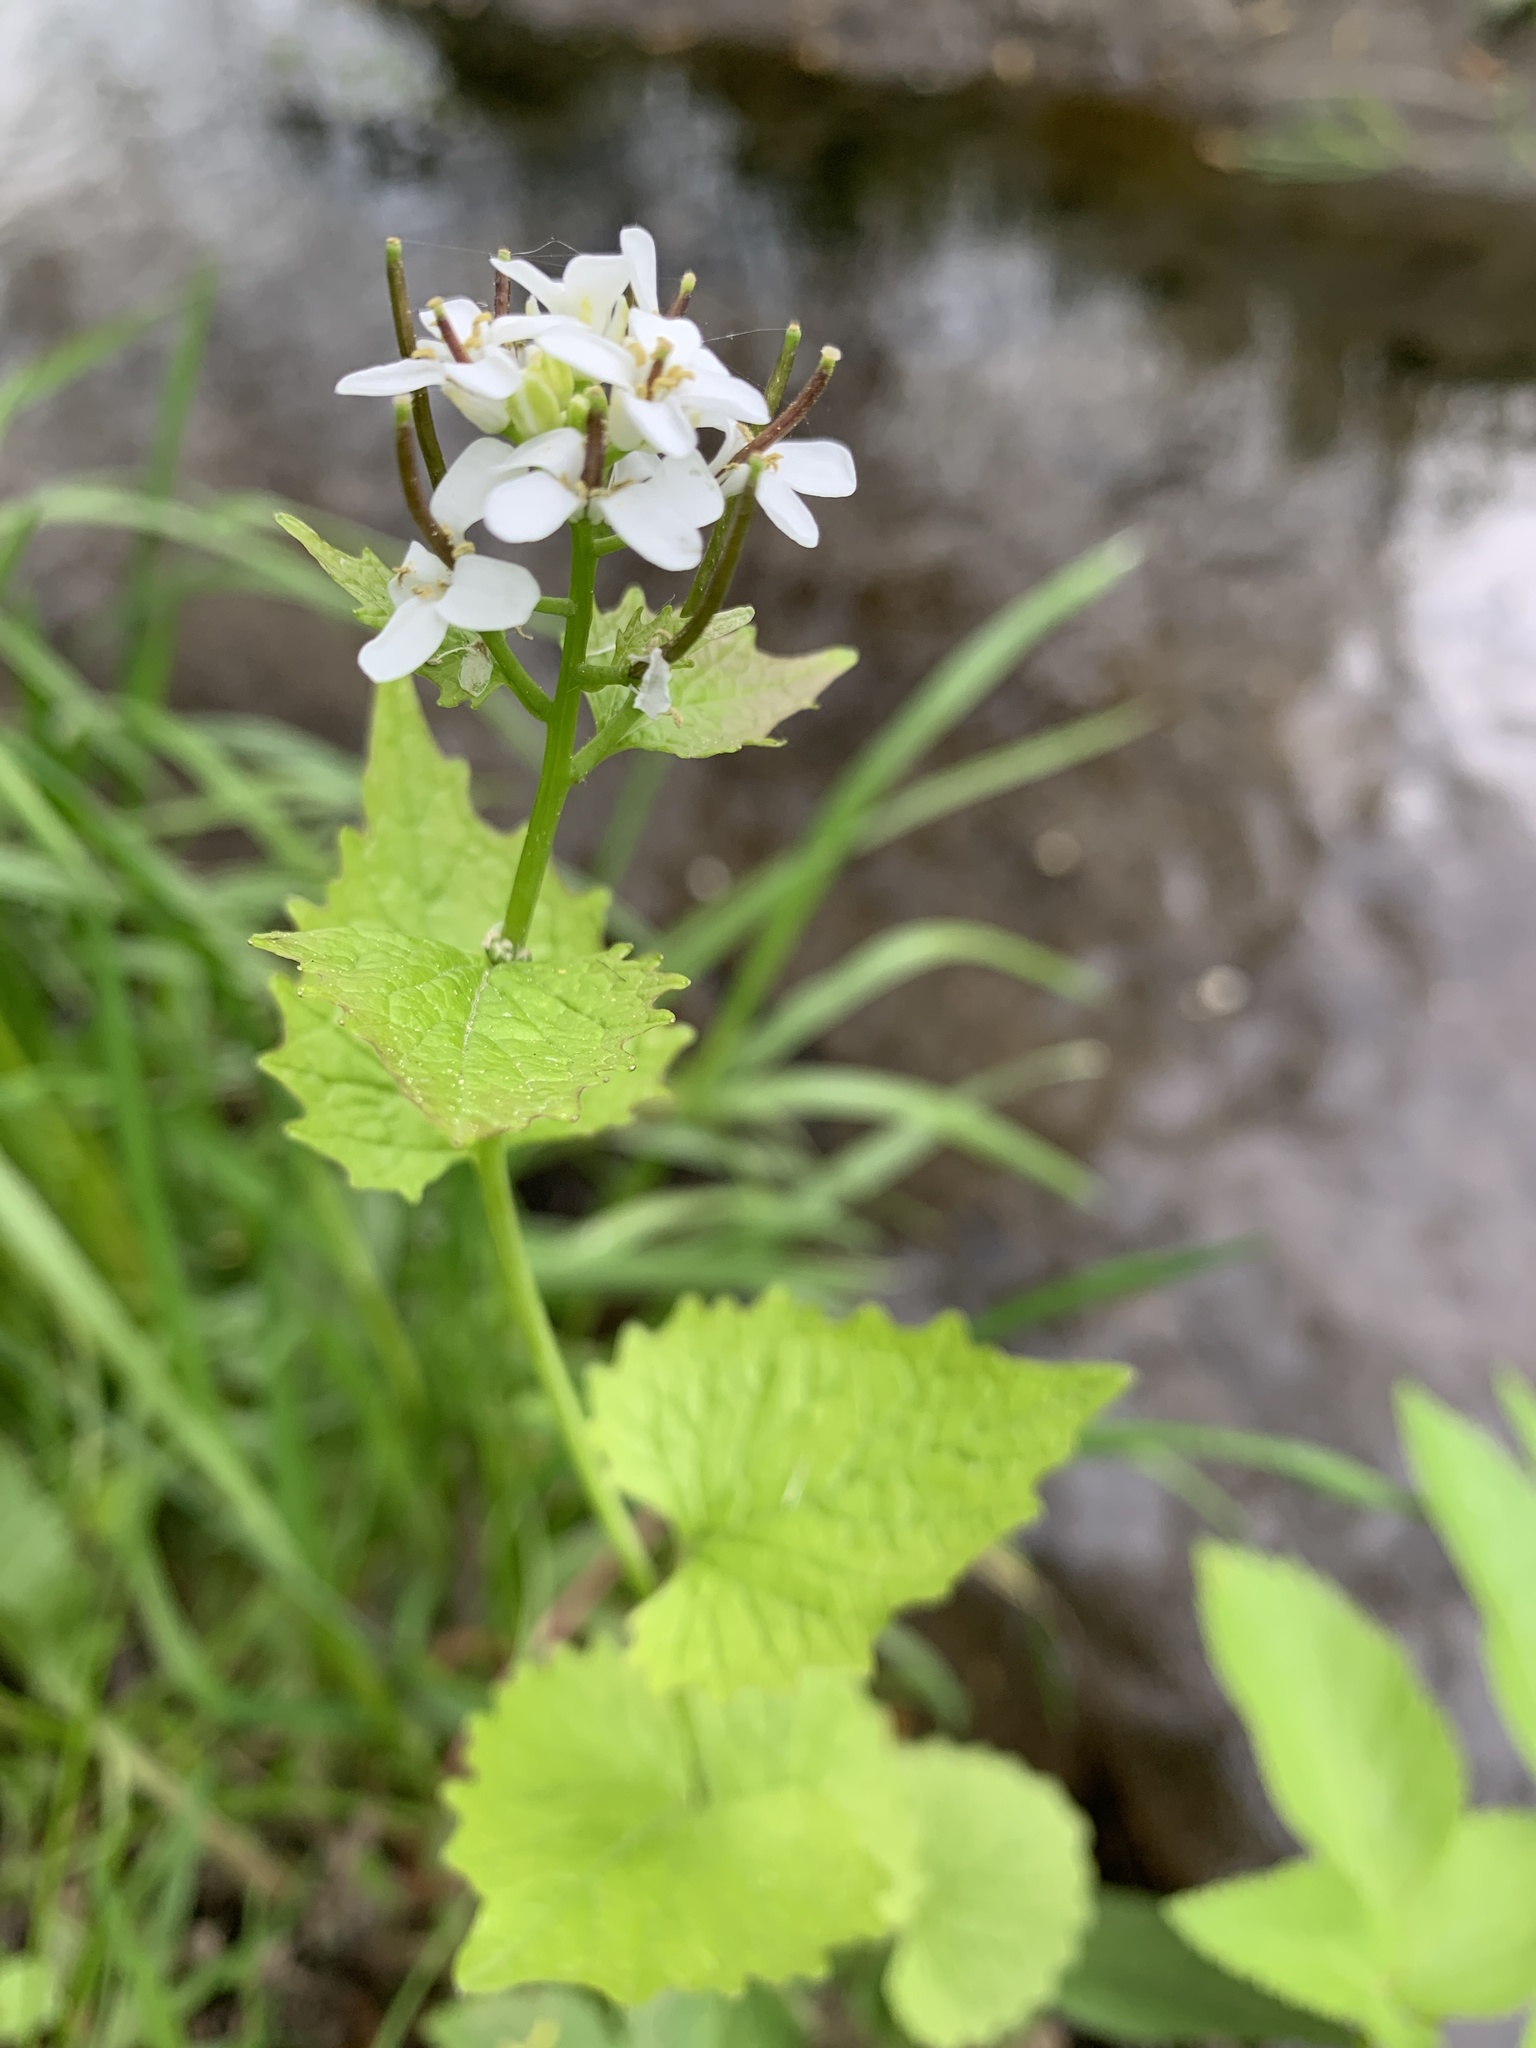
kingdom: Plantae
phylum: Tracheophyta
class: Magnoliopsida
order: Brassicales
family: Brassicaceae
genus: Alliaria
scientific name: Alliaria petiolata
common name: Garlic mustard
